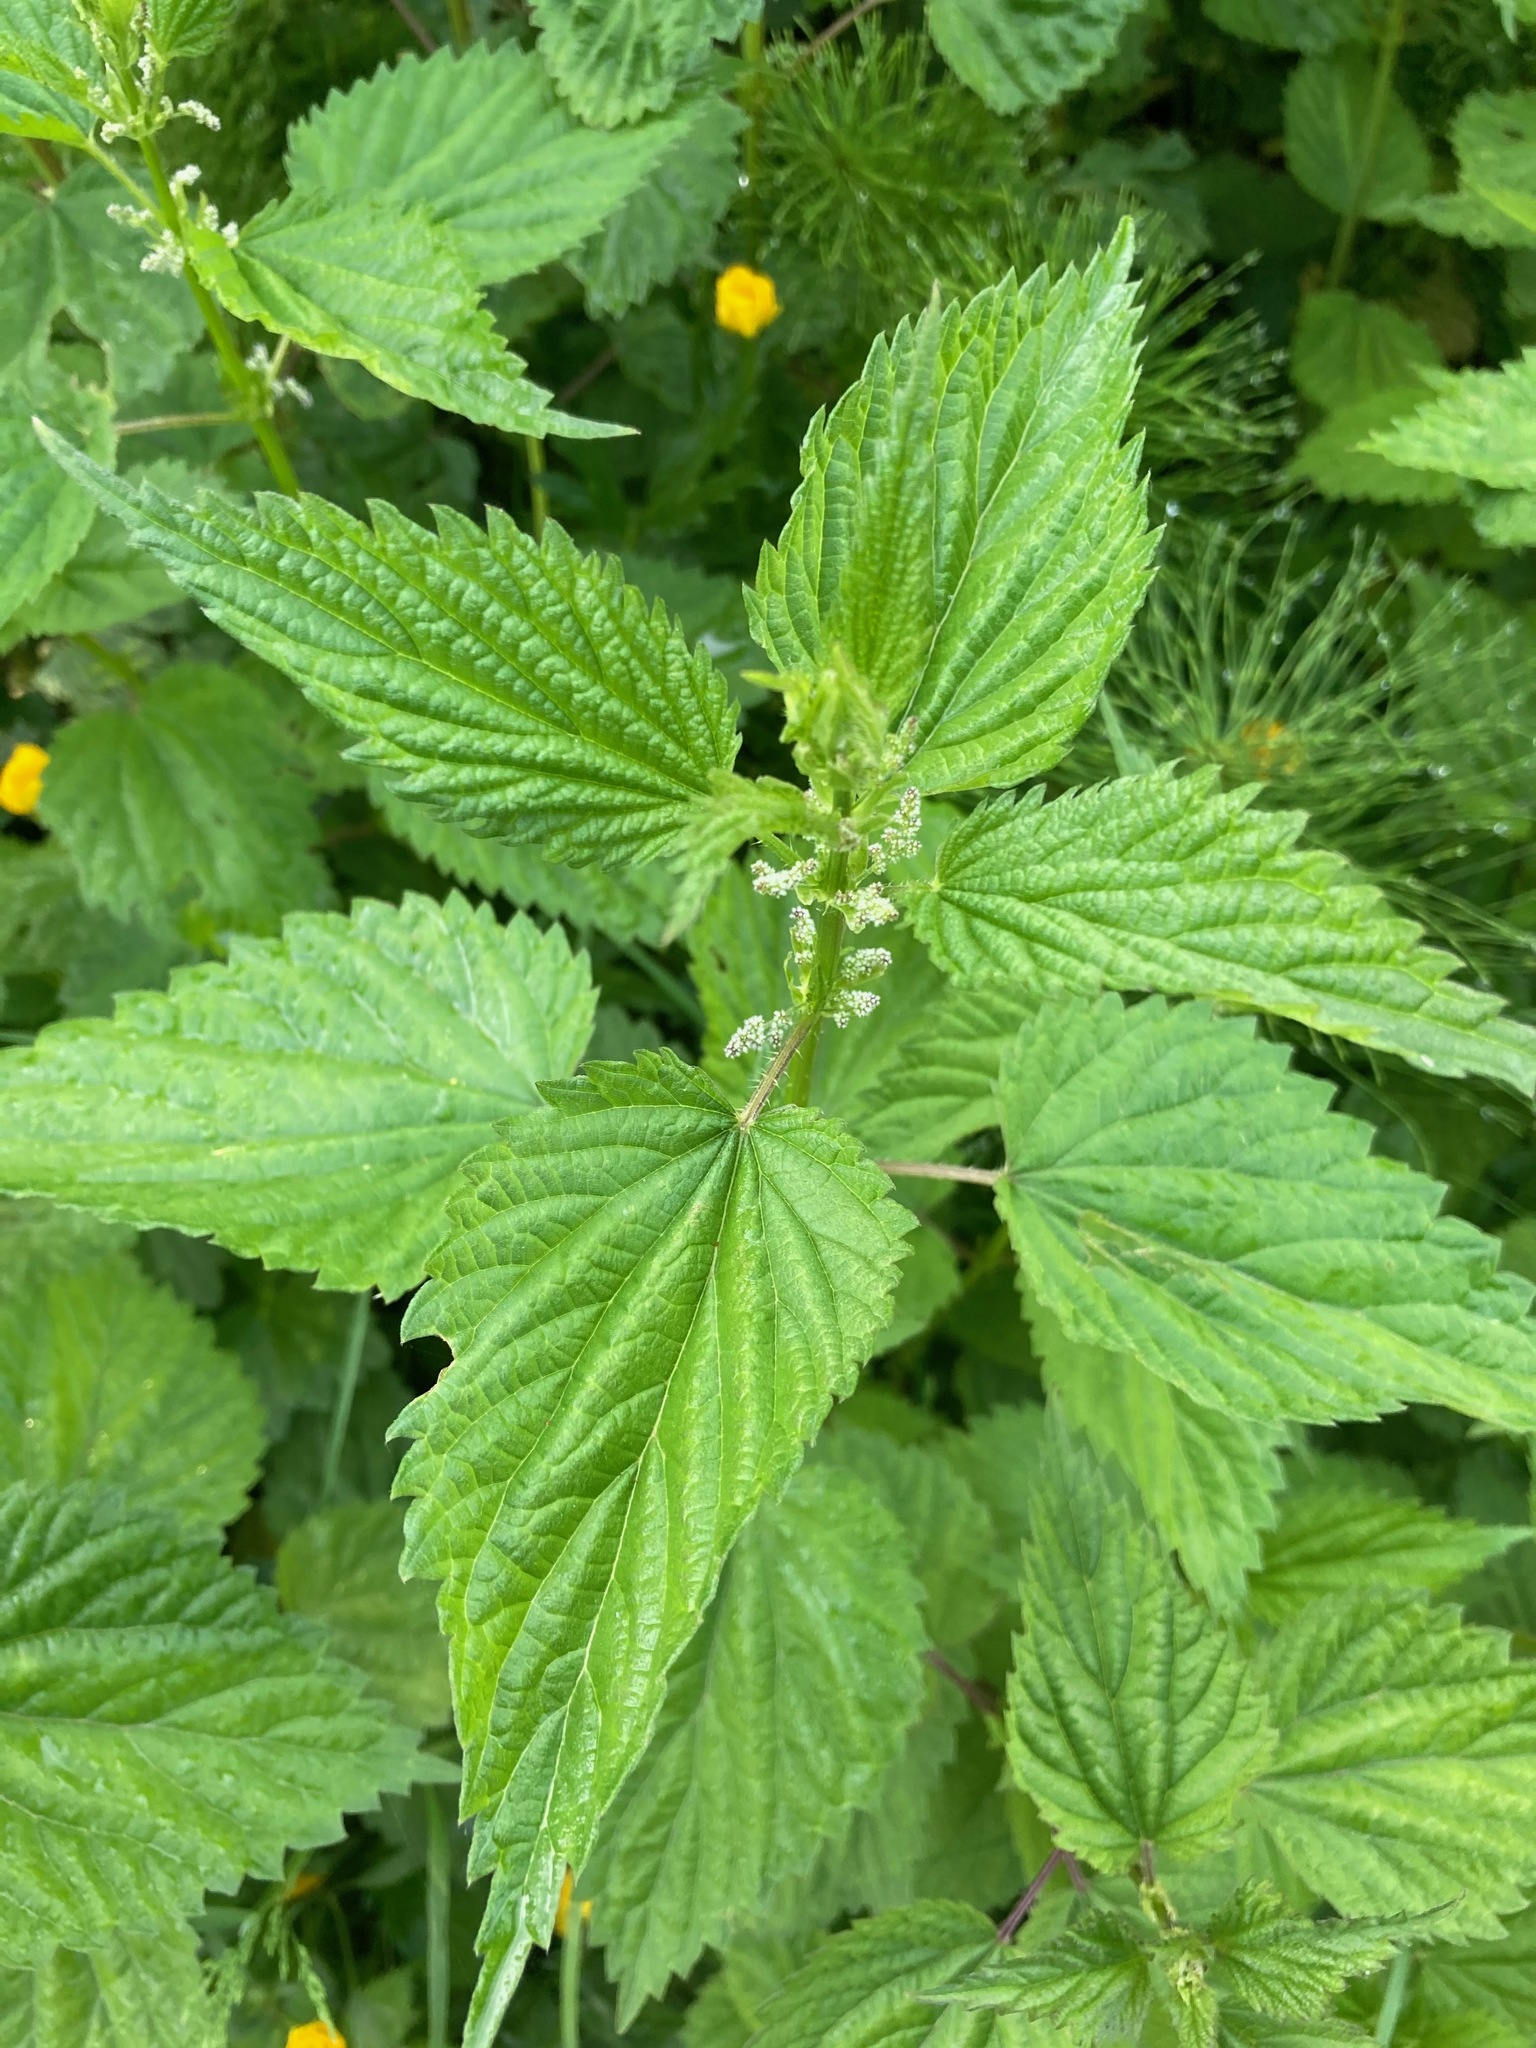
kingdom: Plantae
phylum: Tracheophyta
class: Magnoliopsida
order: Rosales
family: Urticaceae
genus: Urtica
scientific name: Urtica dioica
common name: Common nettle
